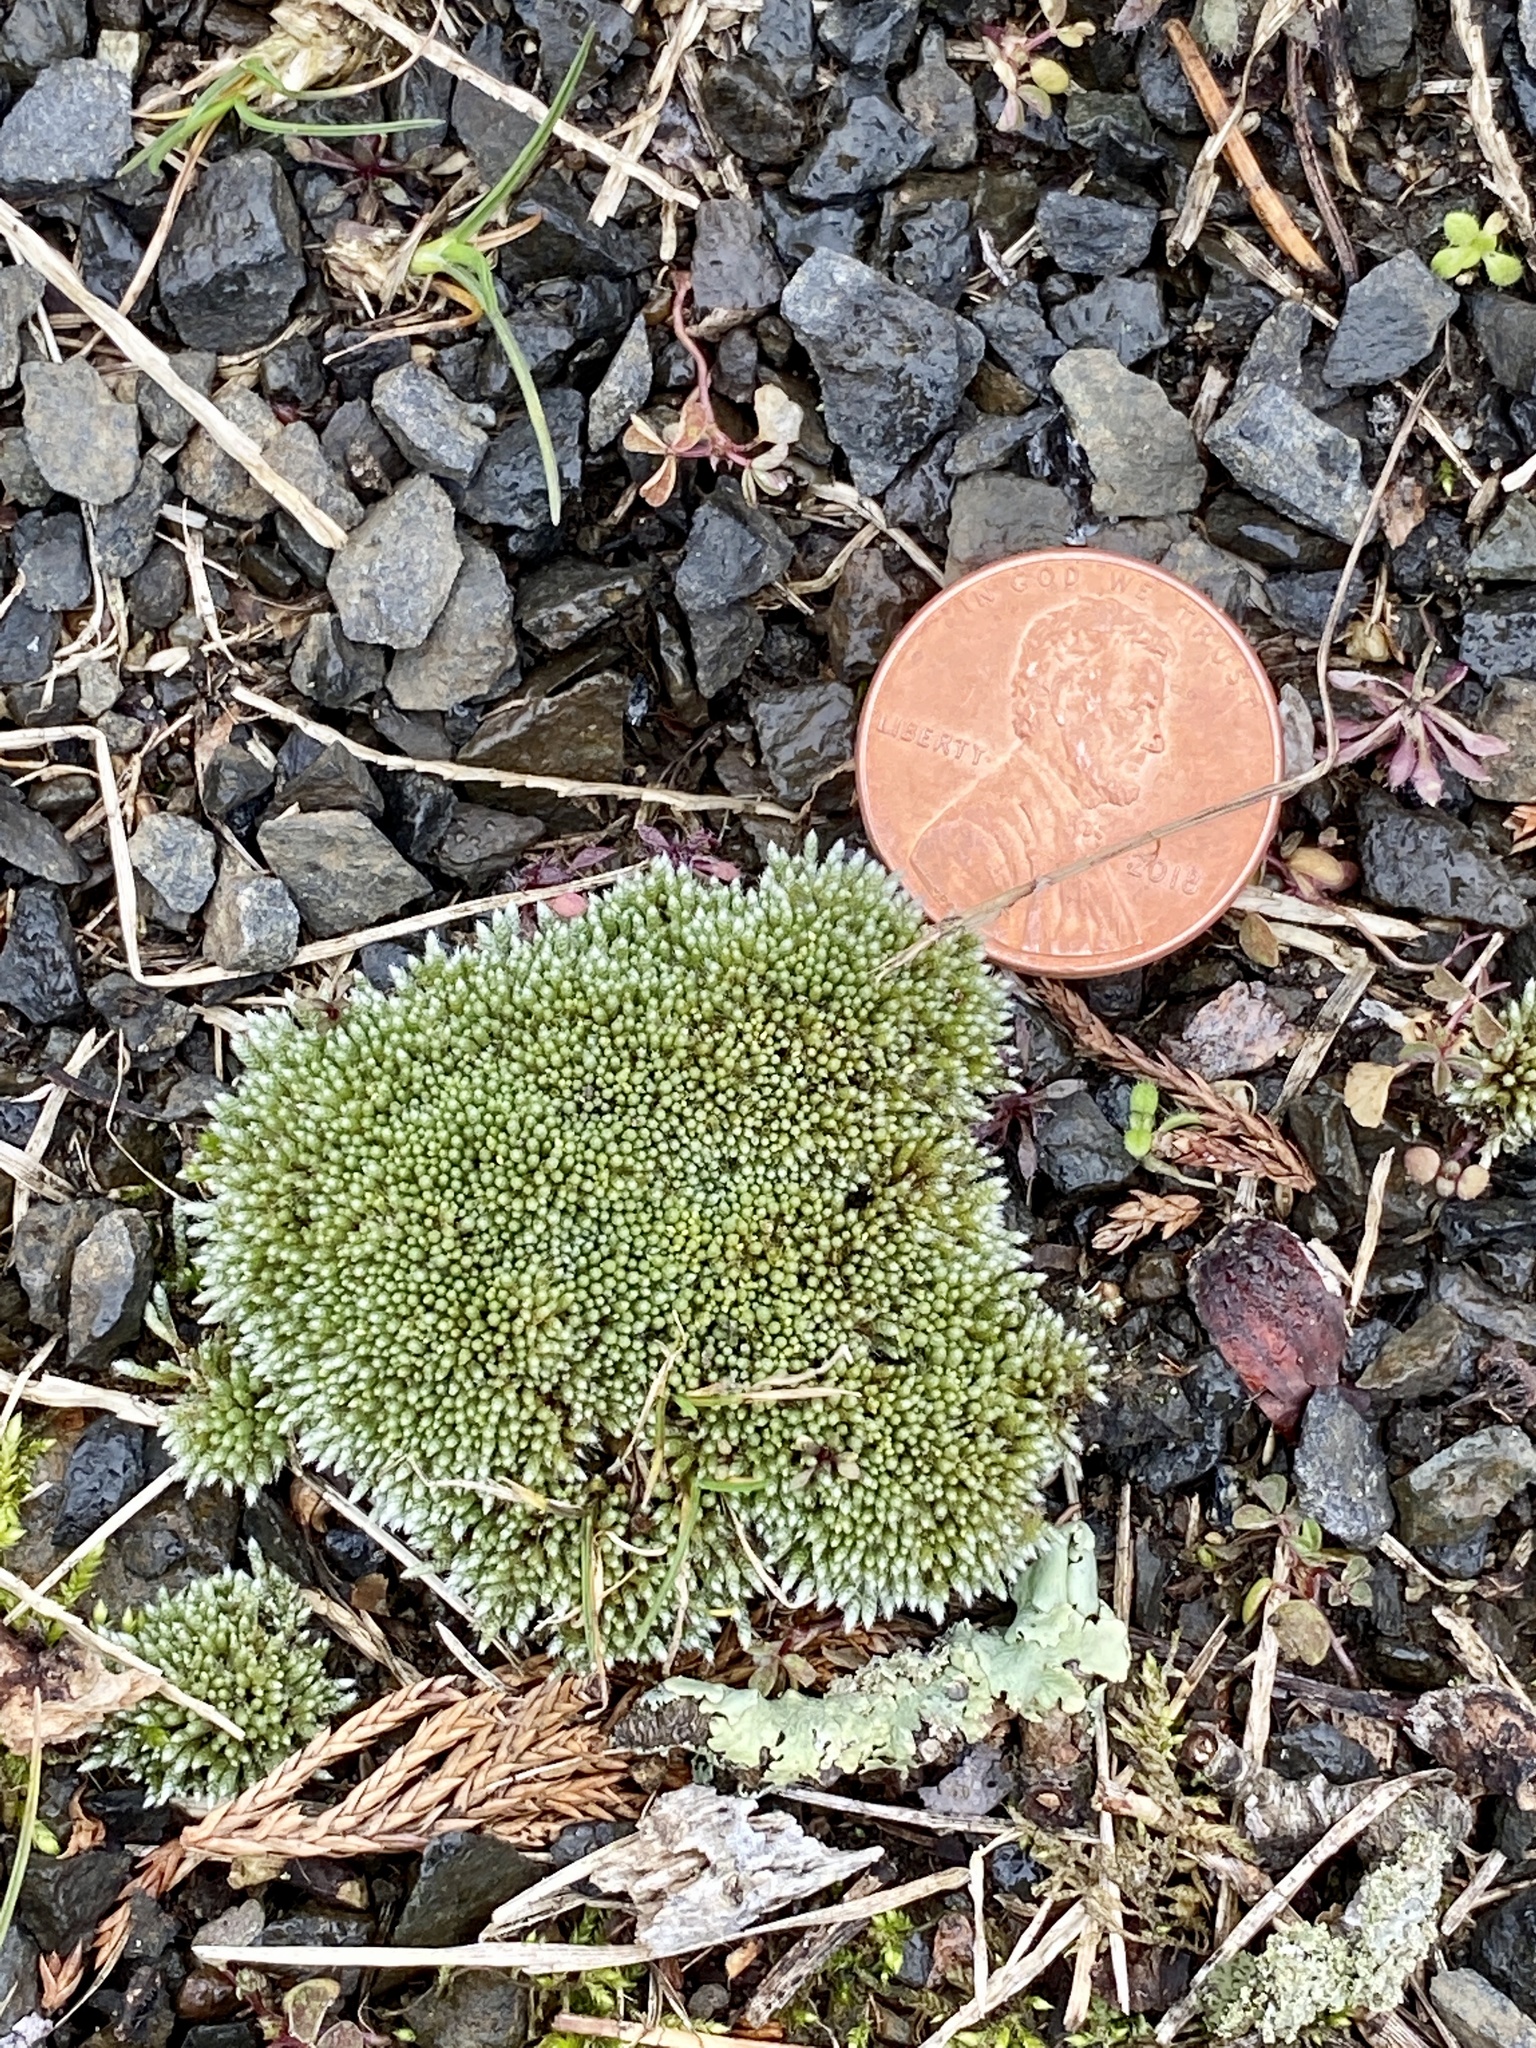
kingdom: Plantae
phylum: Bryophyta
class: Bryopsida
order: Bryales
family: Bryaceae
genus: Bryum
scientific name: Bryum argenteum
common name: Silver-moss
